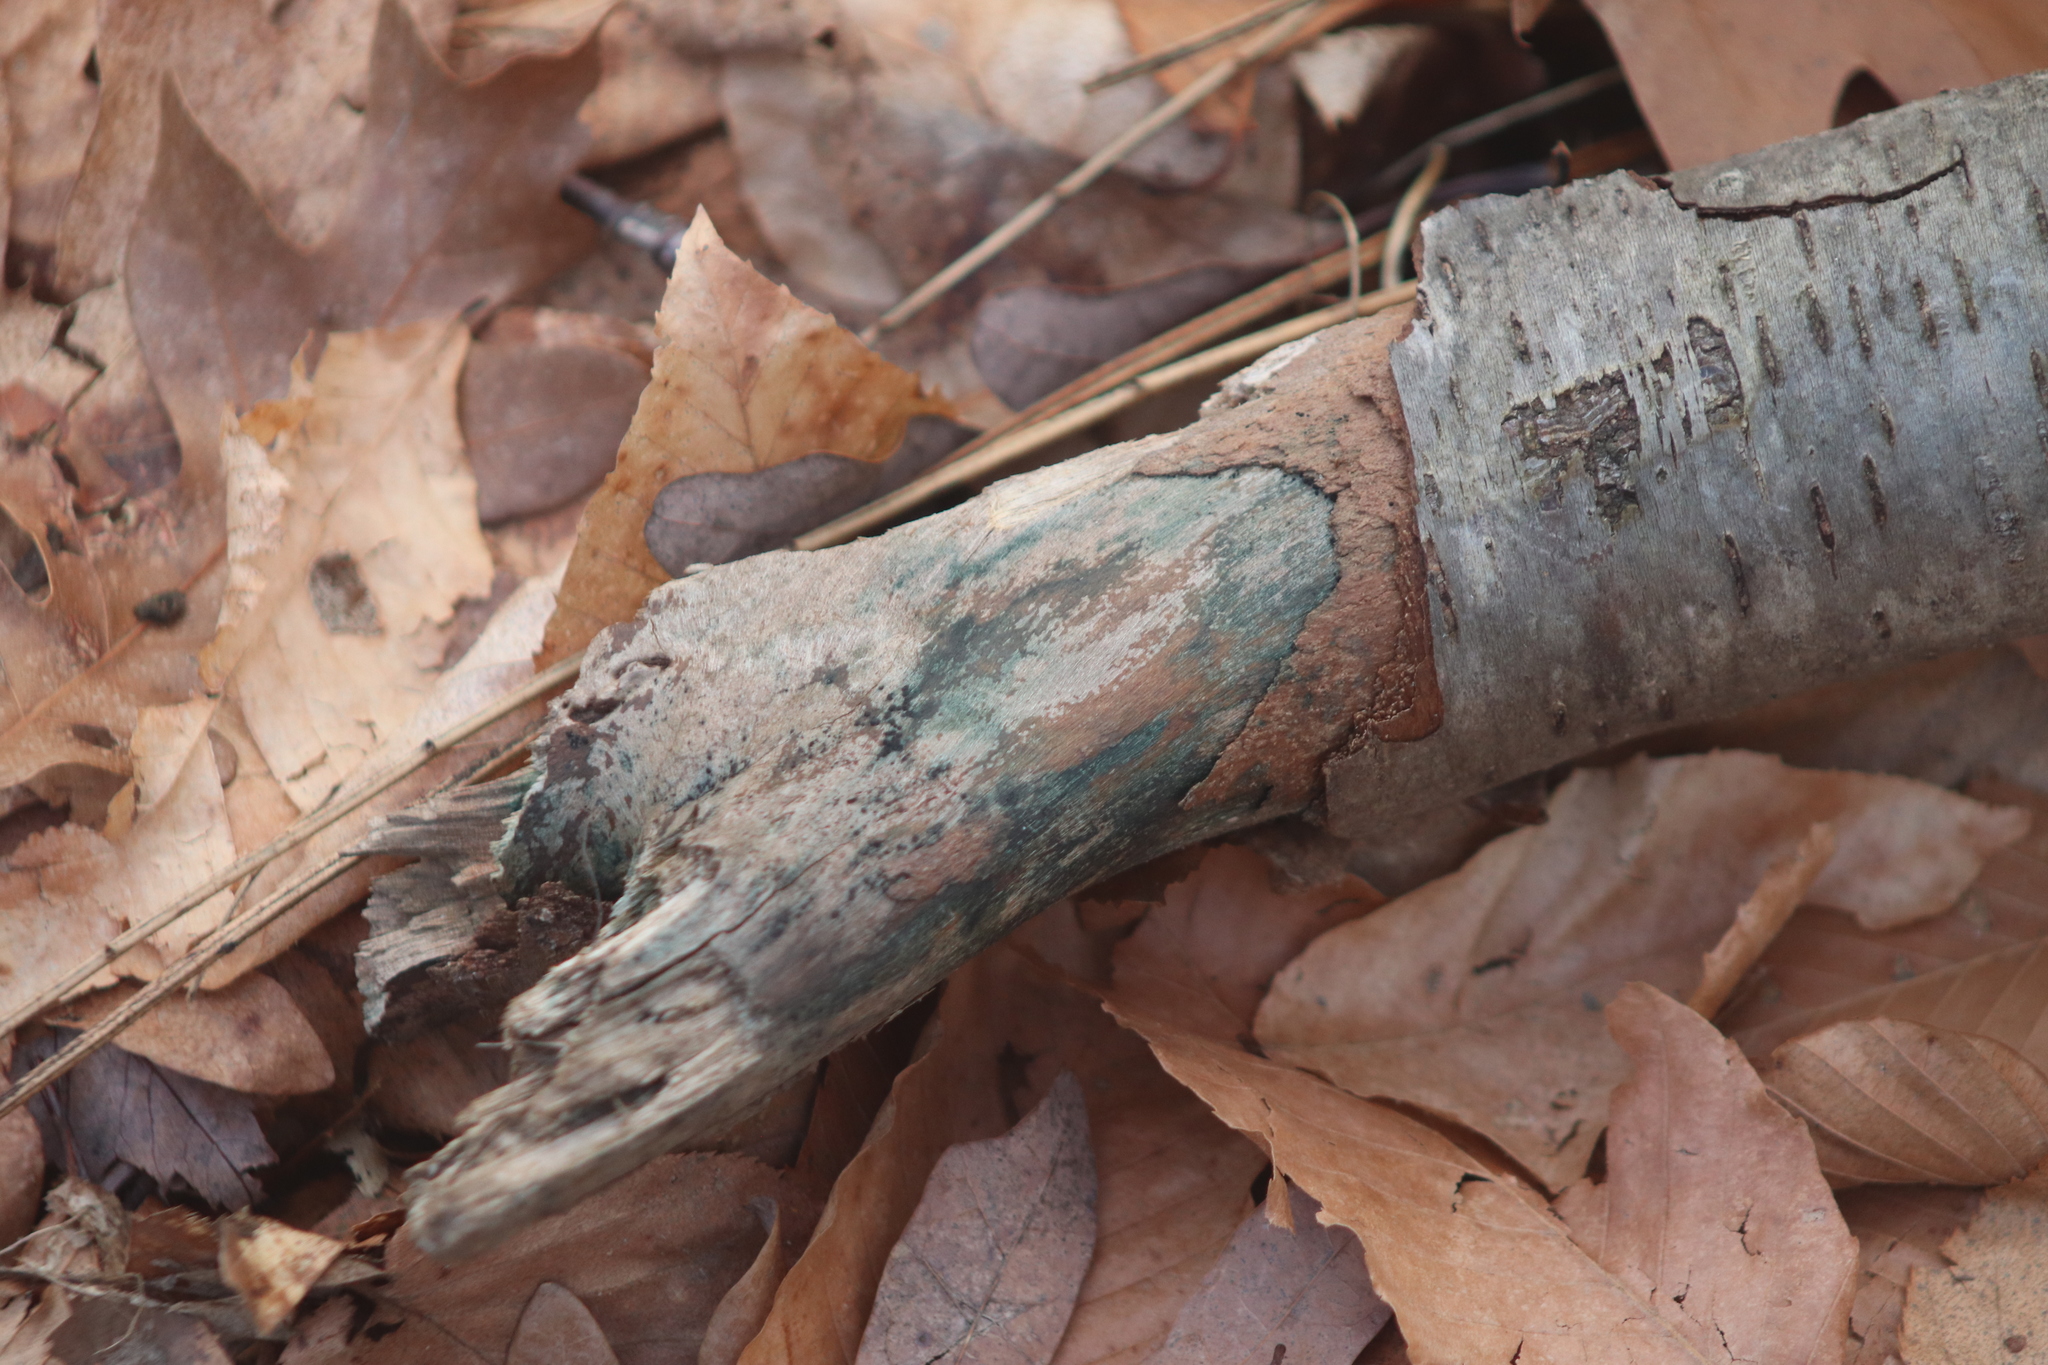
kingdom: Fungi
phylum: Ascomycota
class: Leotiomycetes
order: Helotiales
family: Chlorociboriaceae
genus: Chlorociboria
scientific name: Chlorociboria
